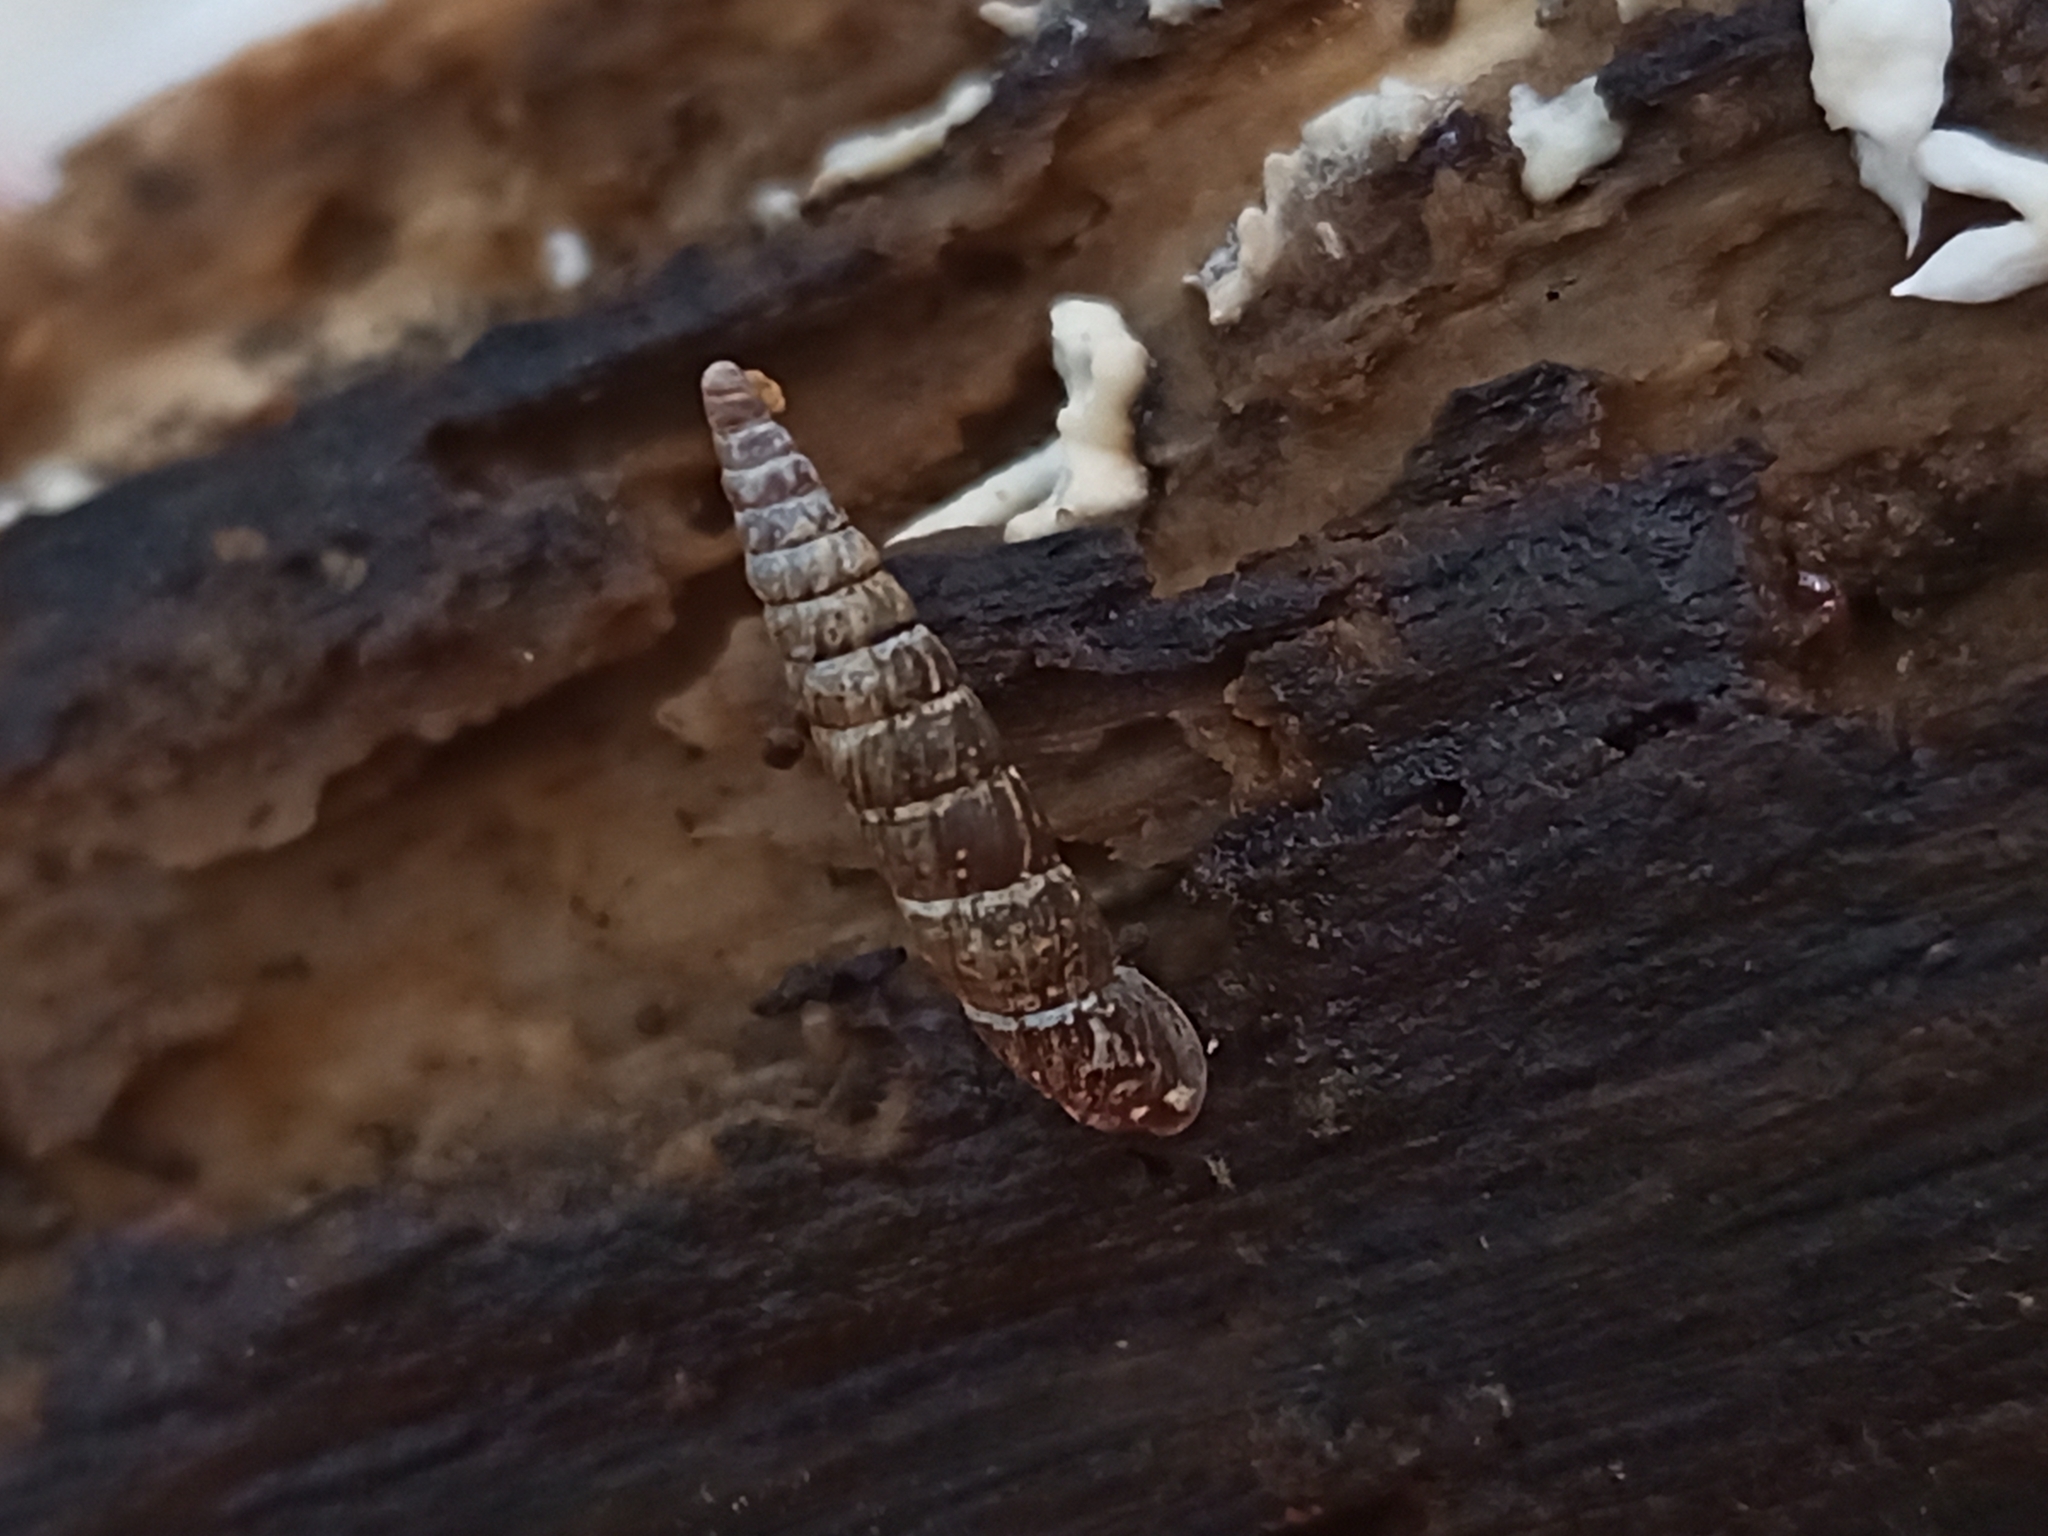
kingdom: Animalia
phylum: Mollusca
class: Gastropoda
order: Stylommatophora
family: Clausiliidae
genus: Clausilia
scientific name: Clausilia bidentata
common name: Two-toothed door snail
